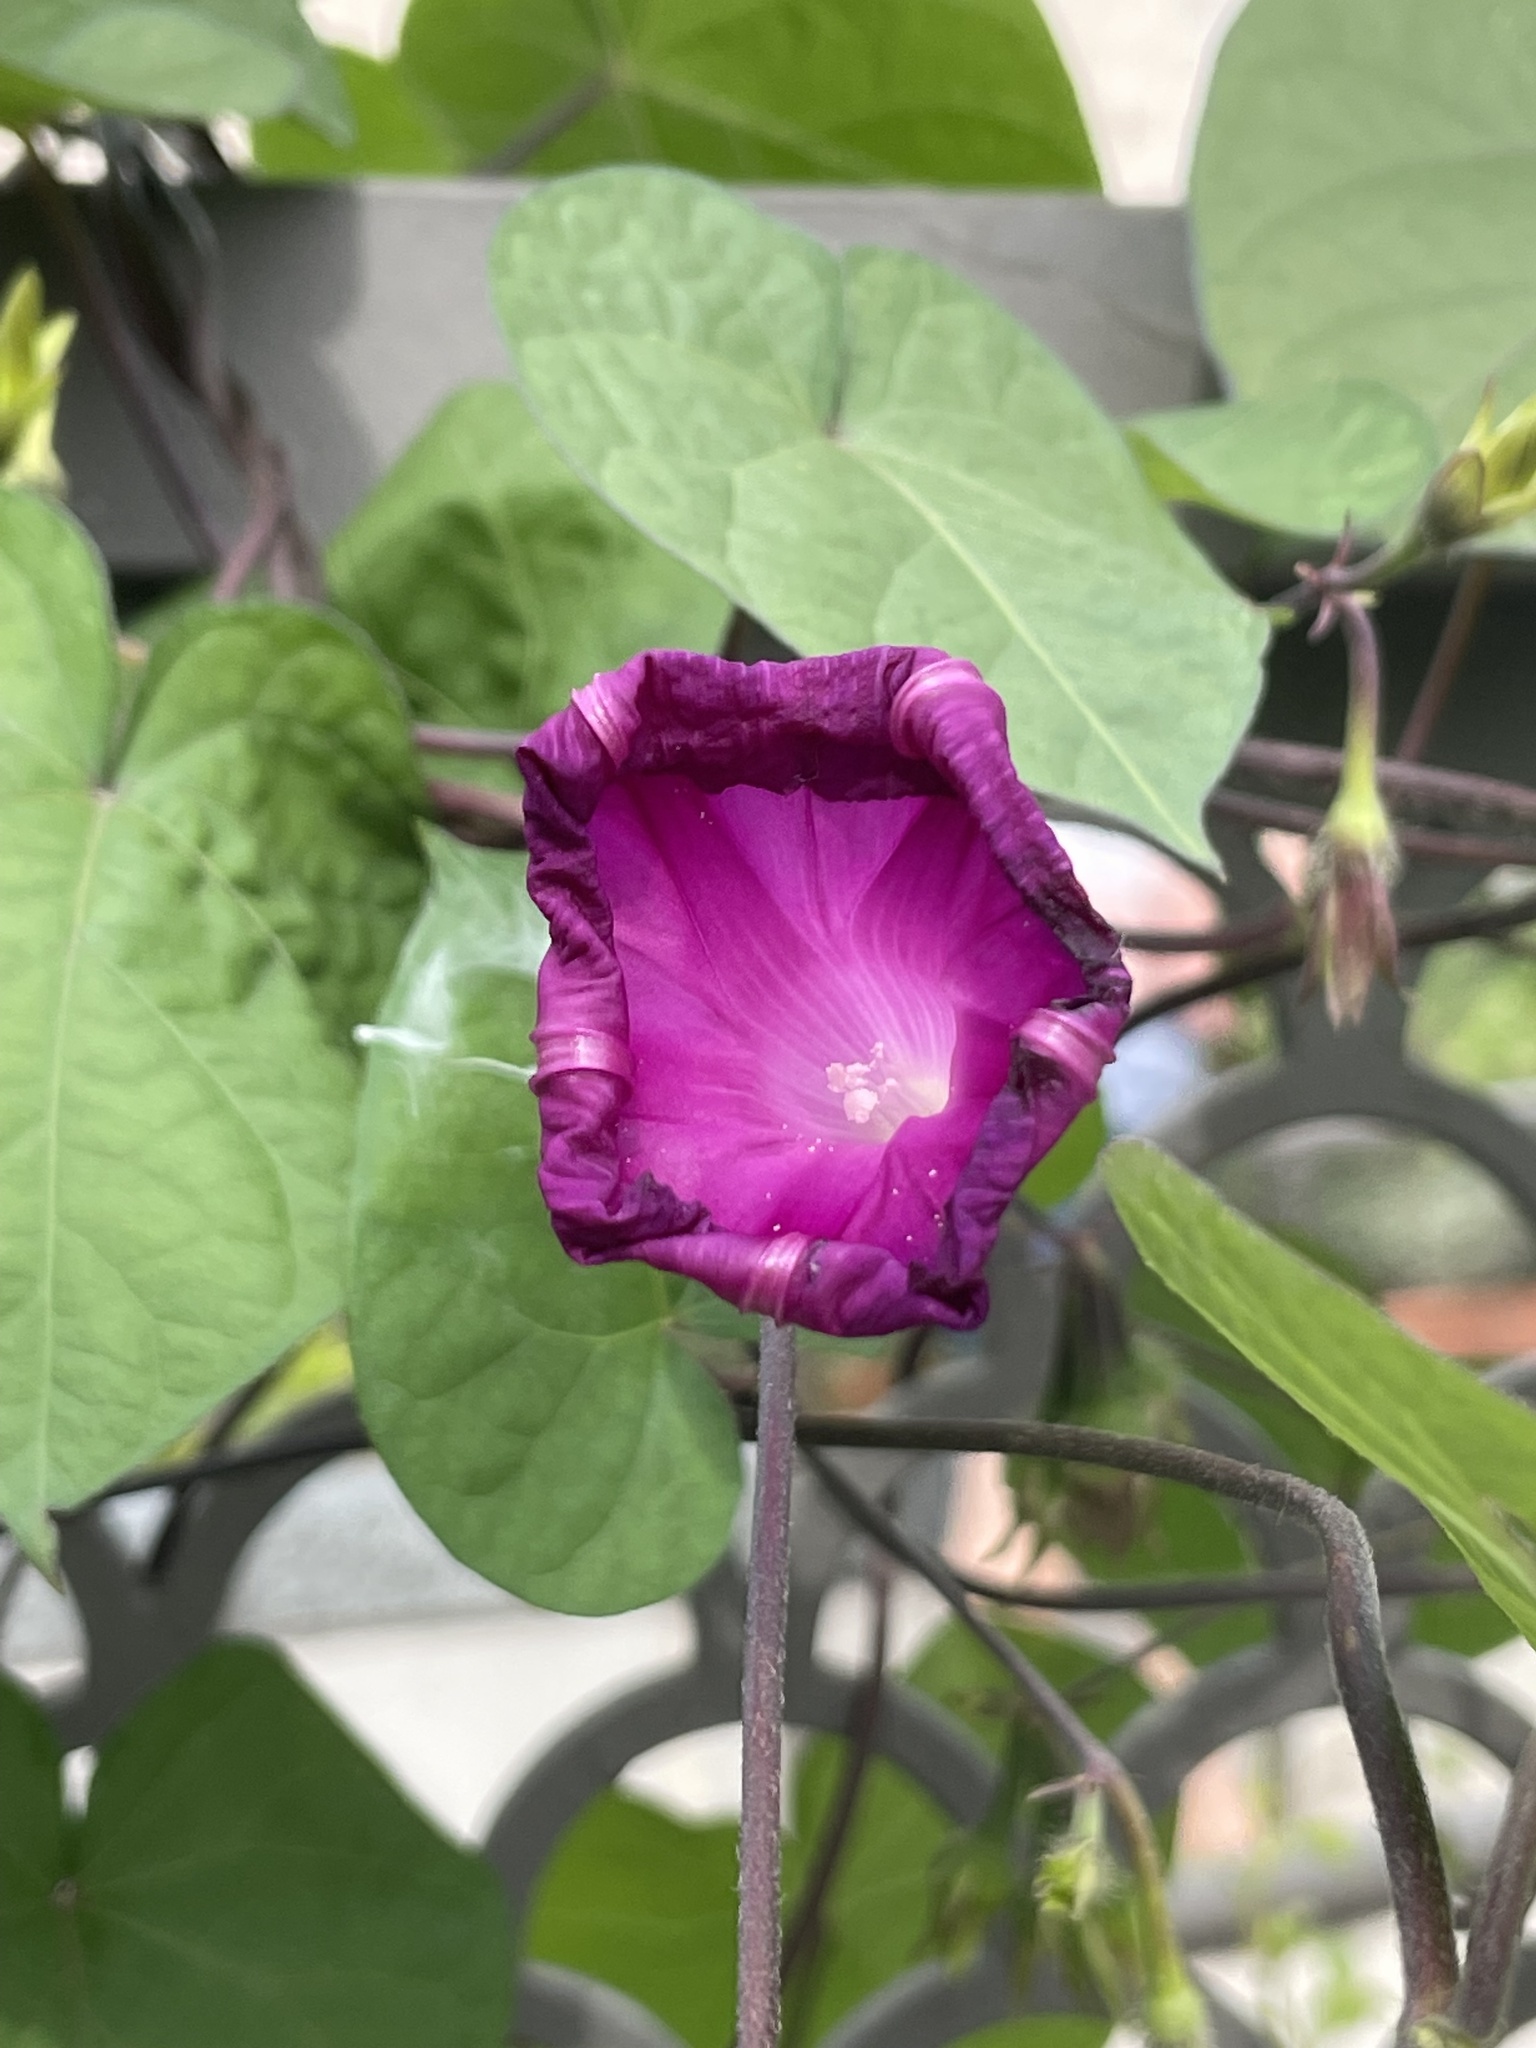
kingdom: Plantae
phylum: Tracheophyta
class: Magnoliopsida
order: Solanales
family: Convolvulaceae
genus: Ipomoea
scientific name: Ipomoea purpurea
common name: Common morning-glory
